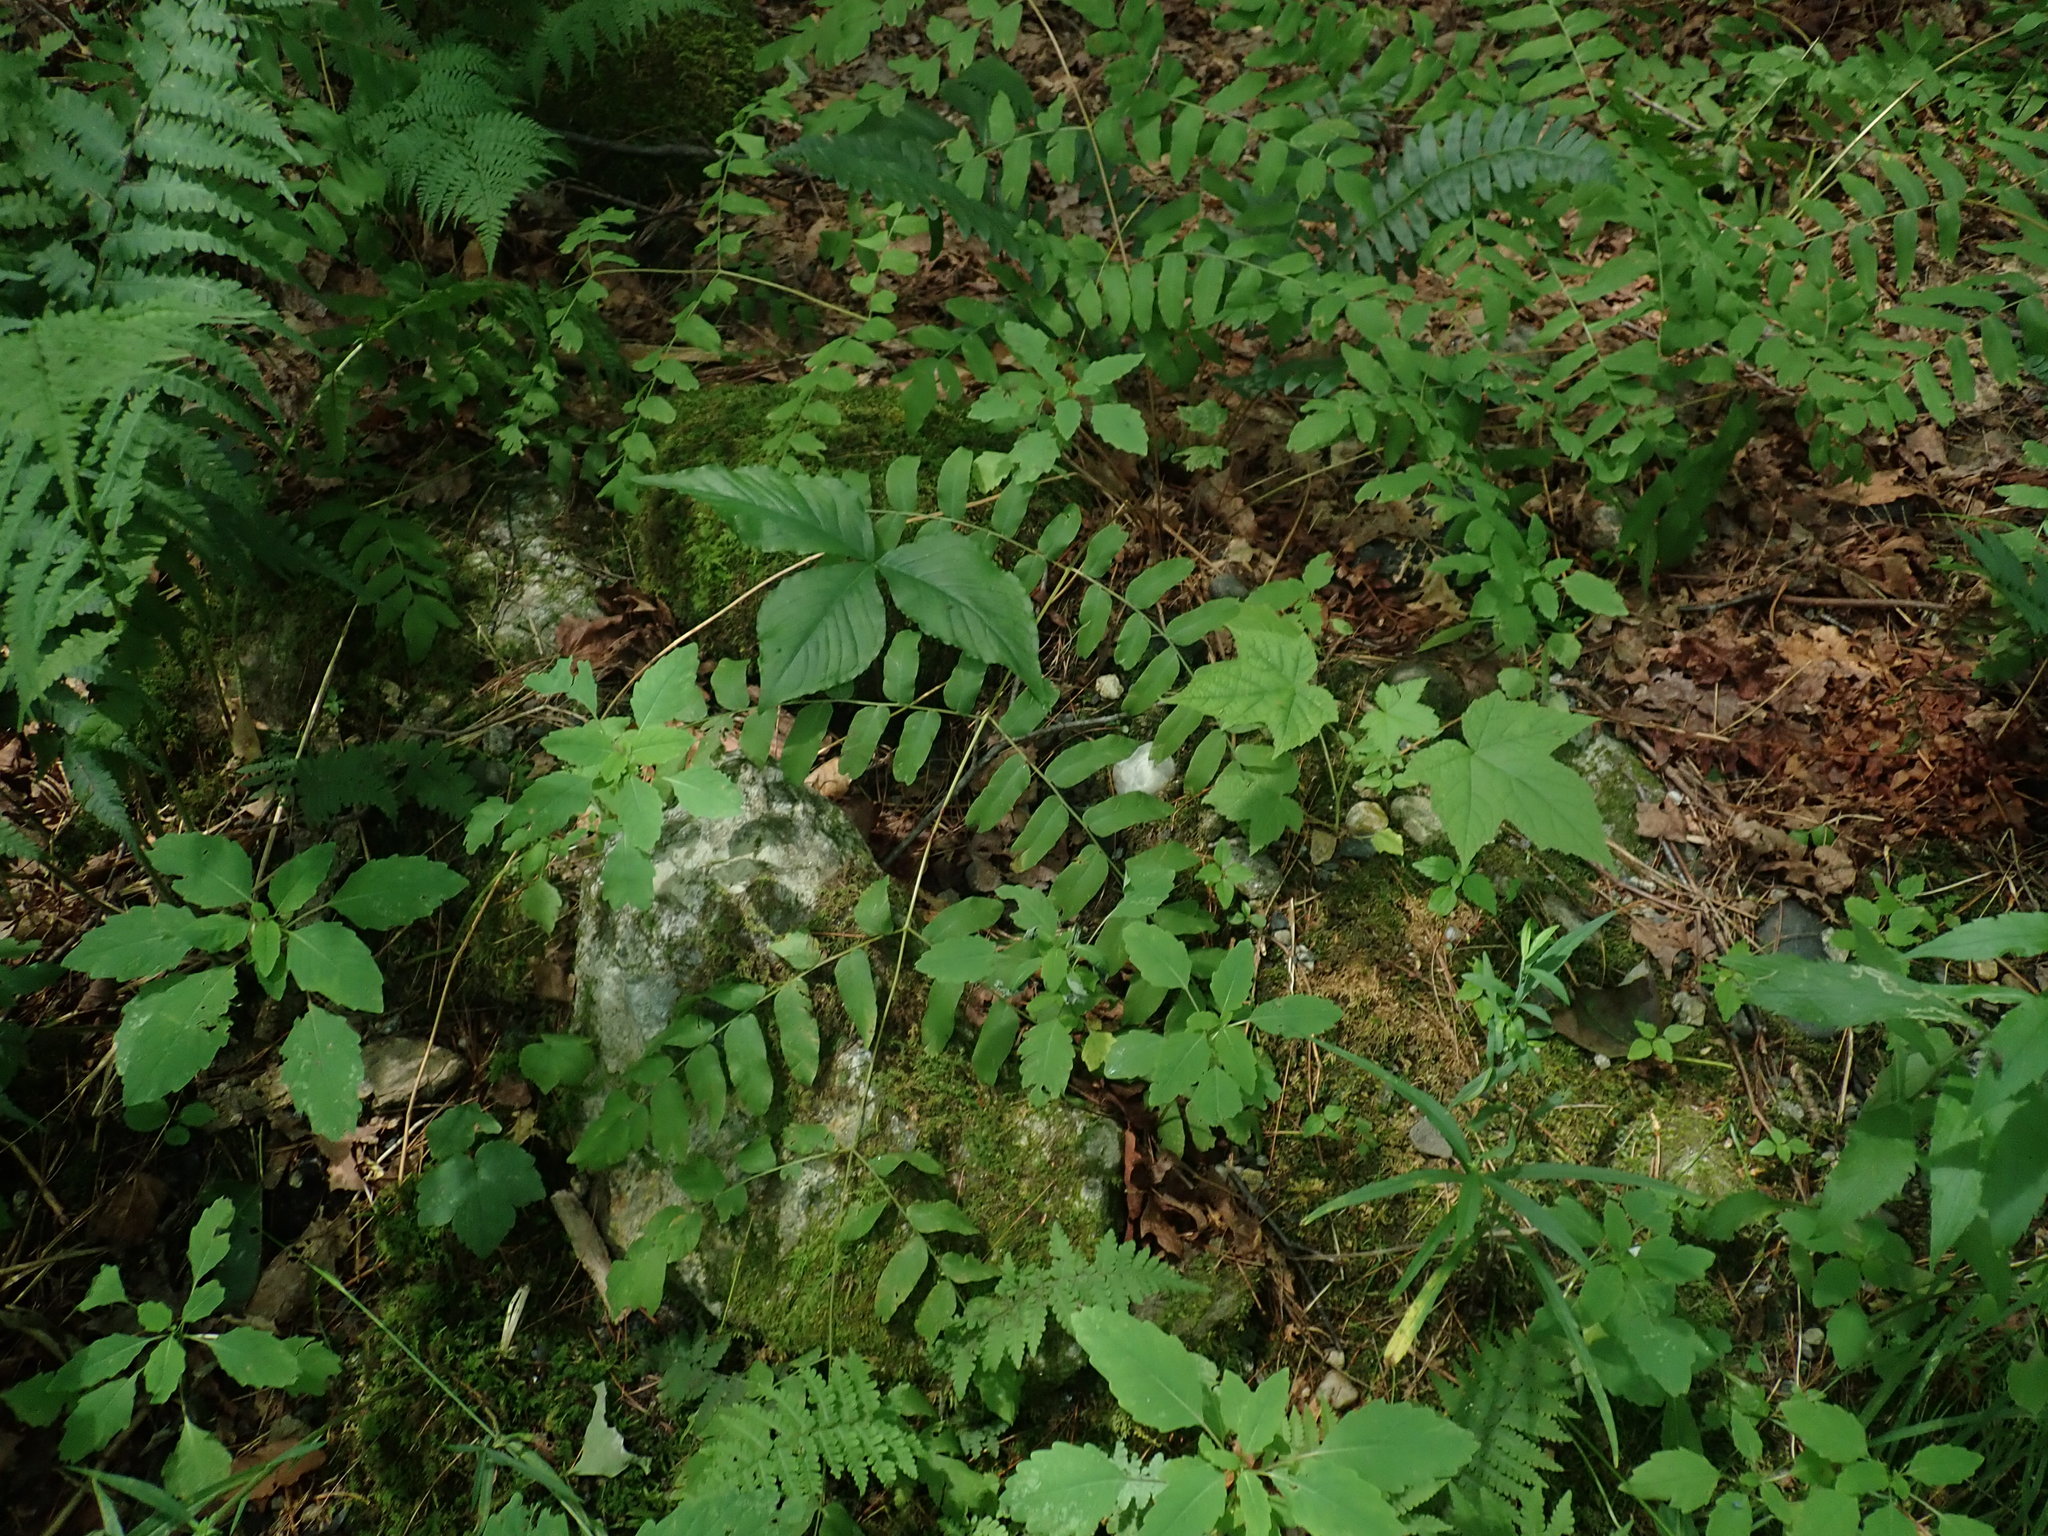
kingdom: Plantae
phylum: Tracheophyta
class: Polypodiopsida
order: Osmundales
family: Osmundaceae
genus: Osmunda
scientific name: Osmunda spectabilis
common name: American royal fern
